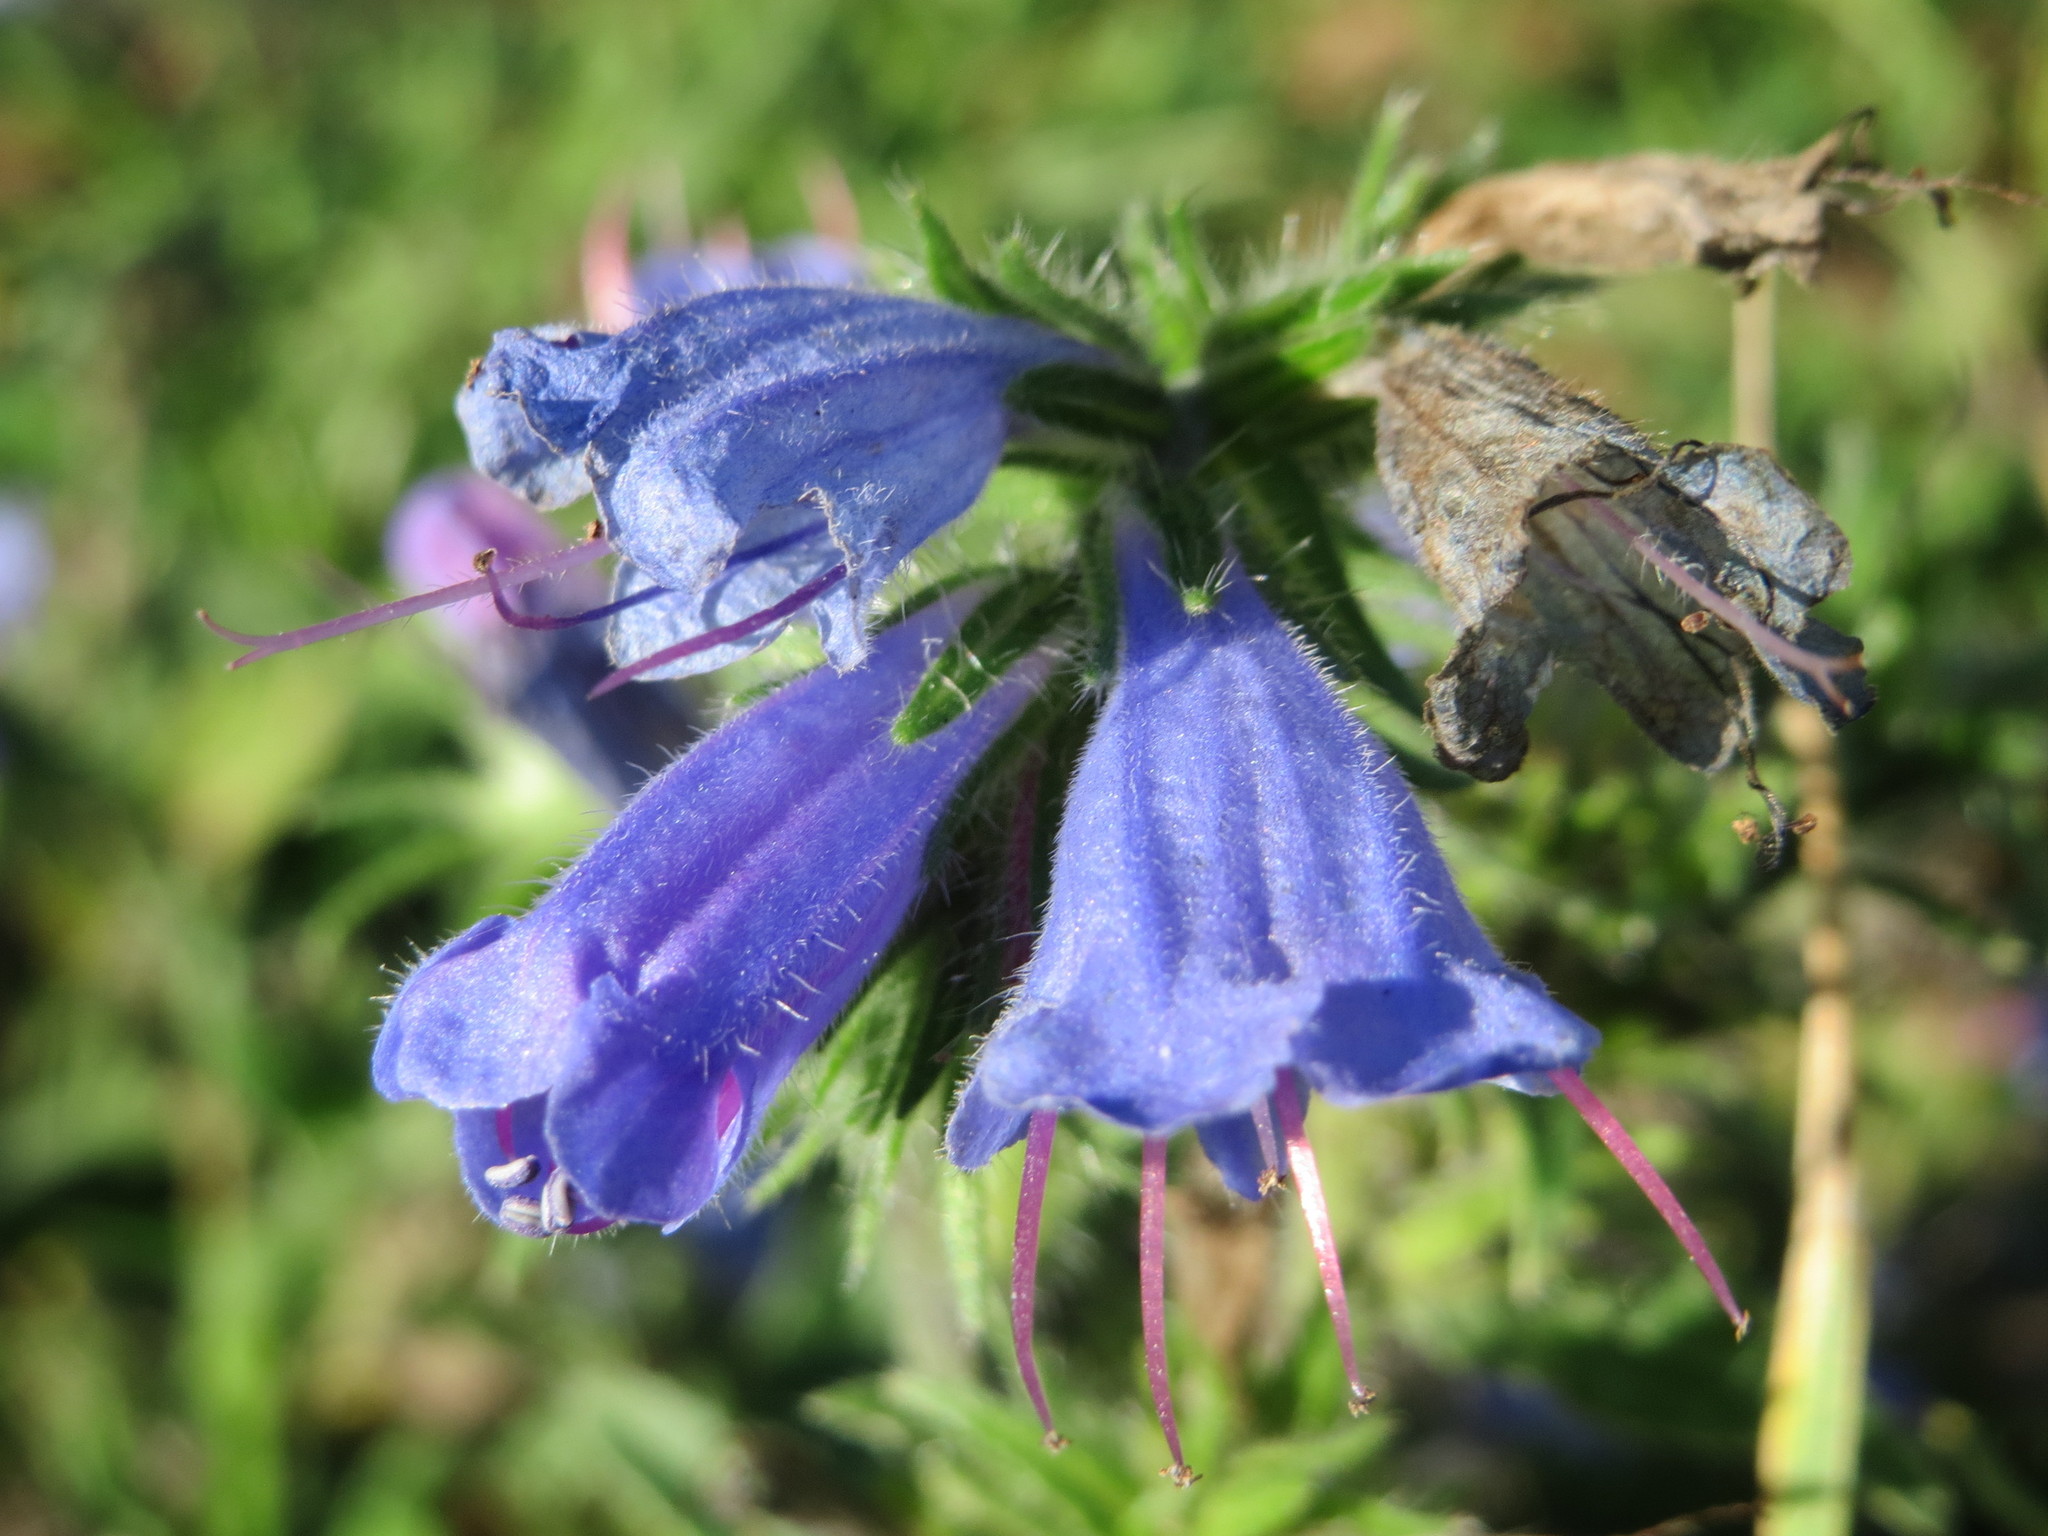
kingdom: Plantae
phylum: Tracheophyta
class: Magnoliopsida
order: Boraginales
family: Boraginaceae
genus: Echium
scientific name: Echium vulgare
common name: Common viper's bugloss
